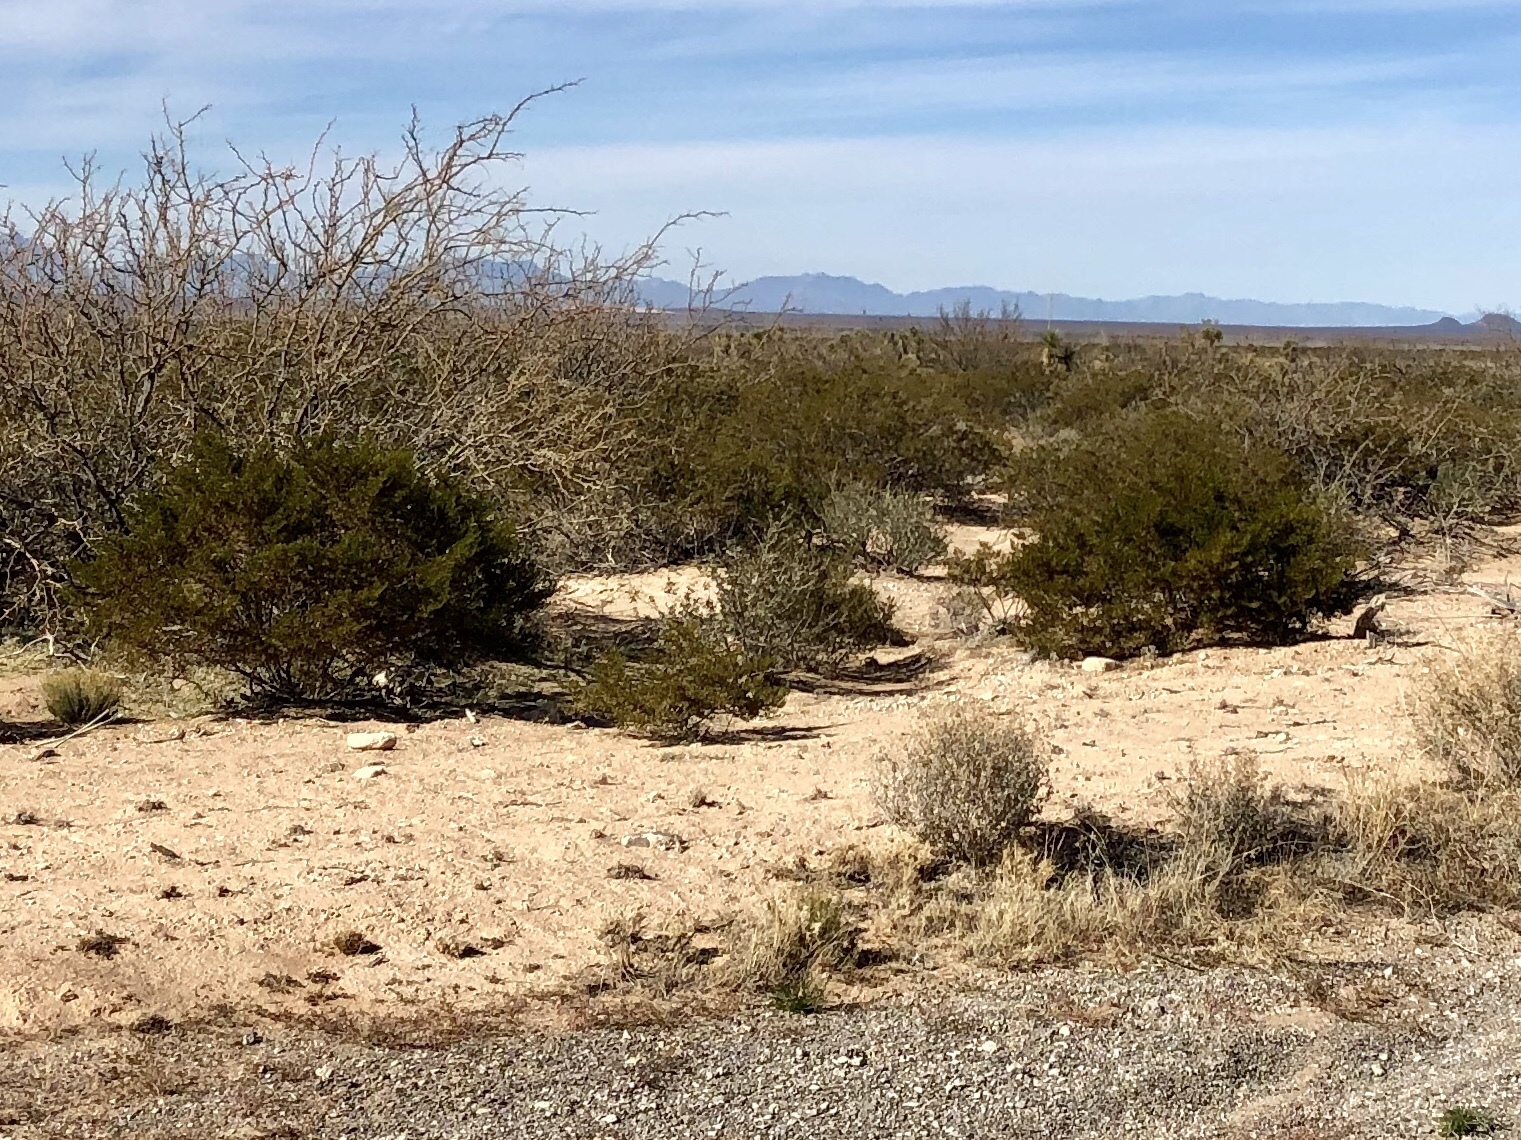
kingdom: Plantae
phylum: Tracheophyta
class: Magnoliopsida
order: Zygophyllales
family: Zygophyllaceae
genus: Larrea
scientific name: Larrea tridentata
